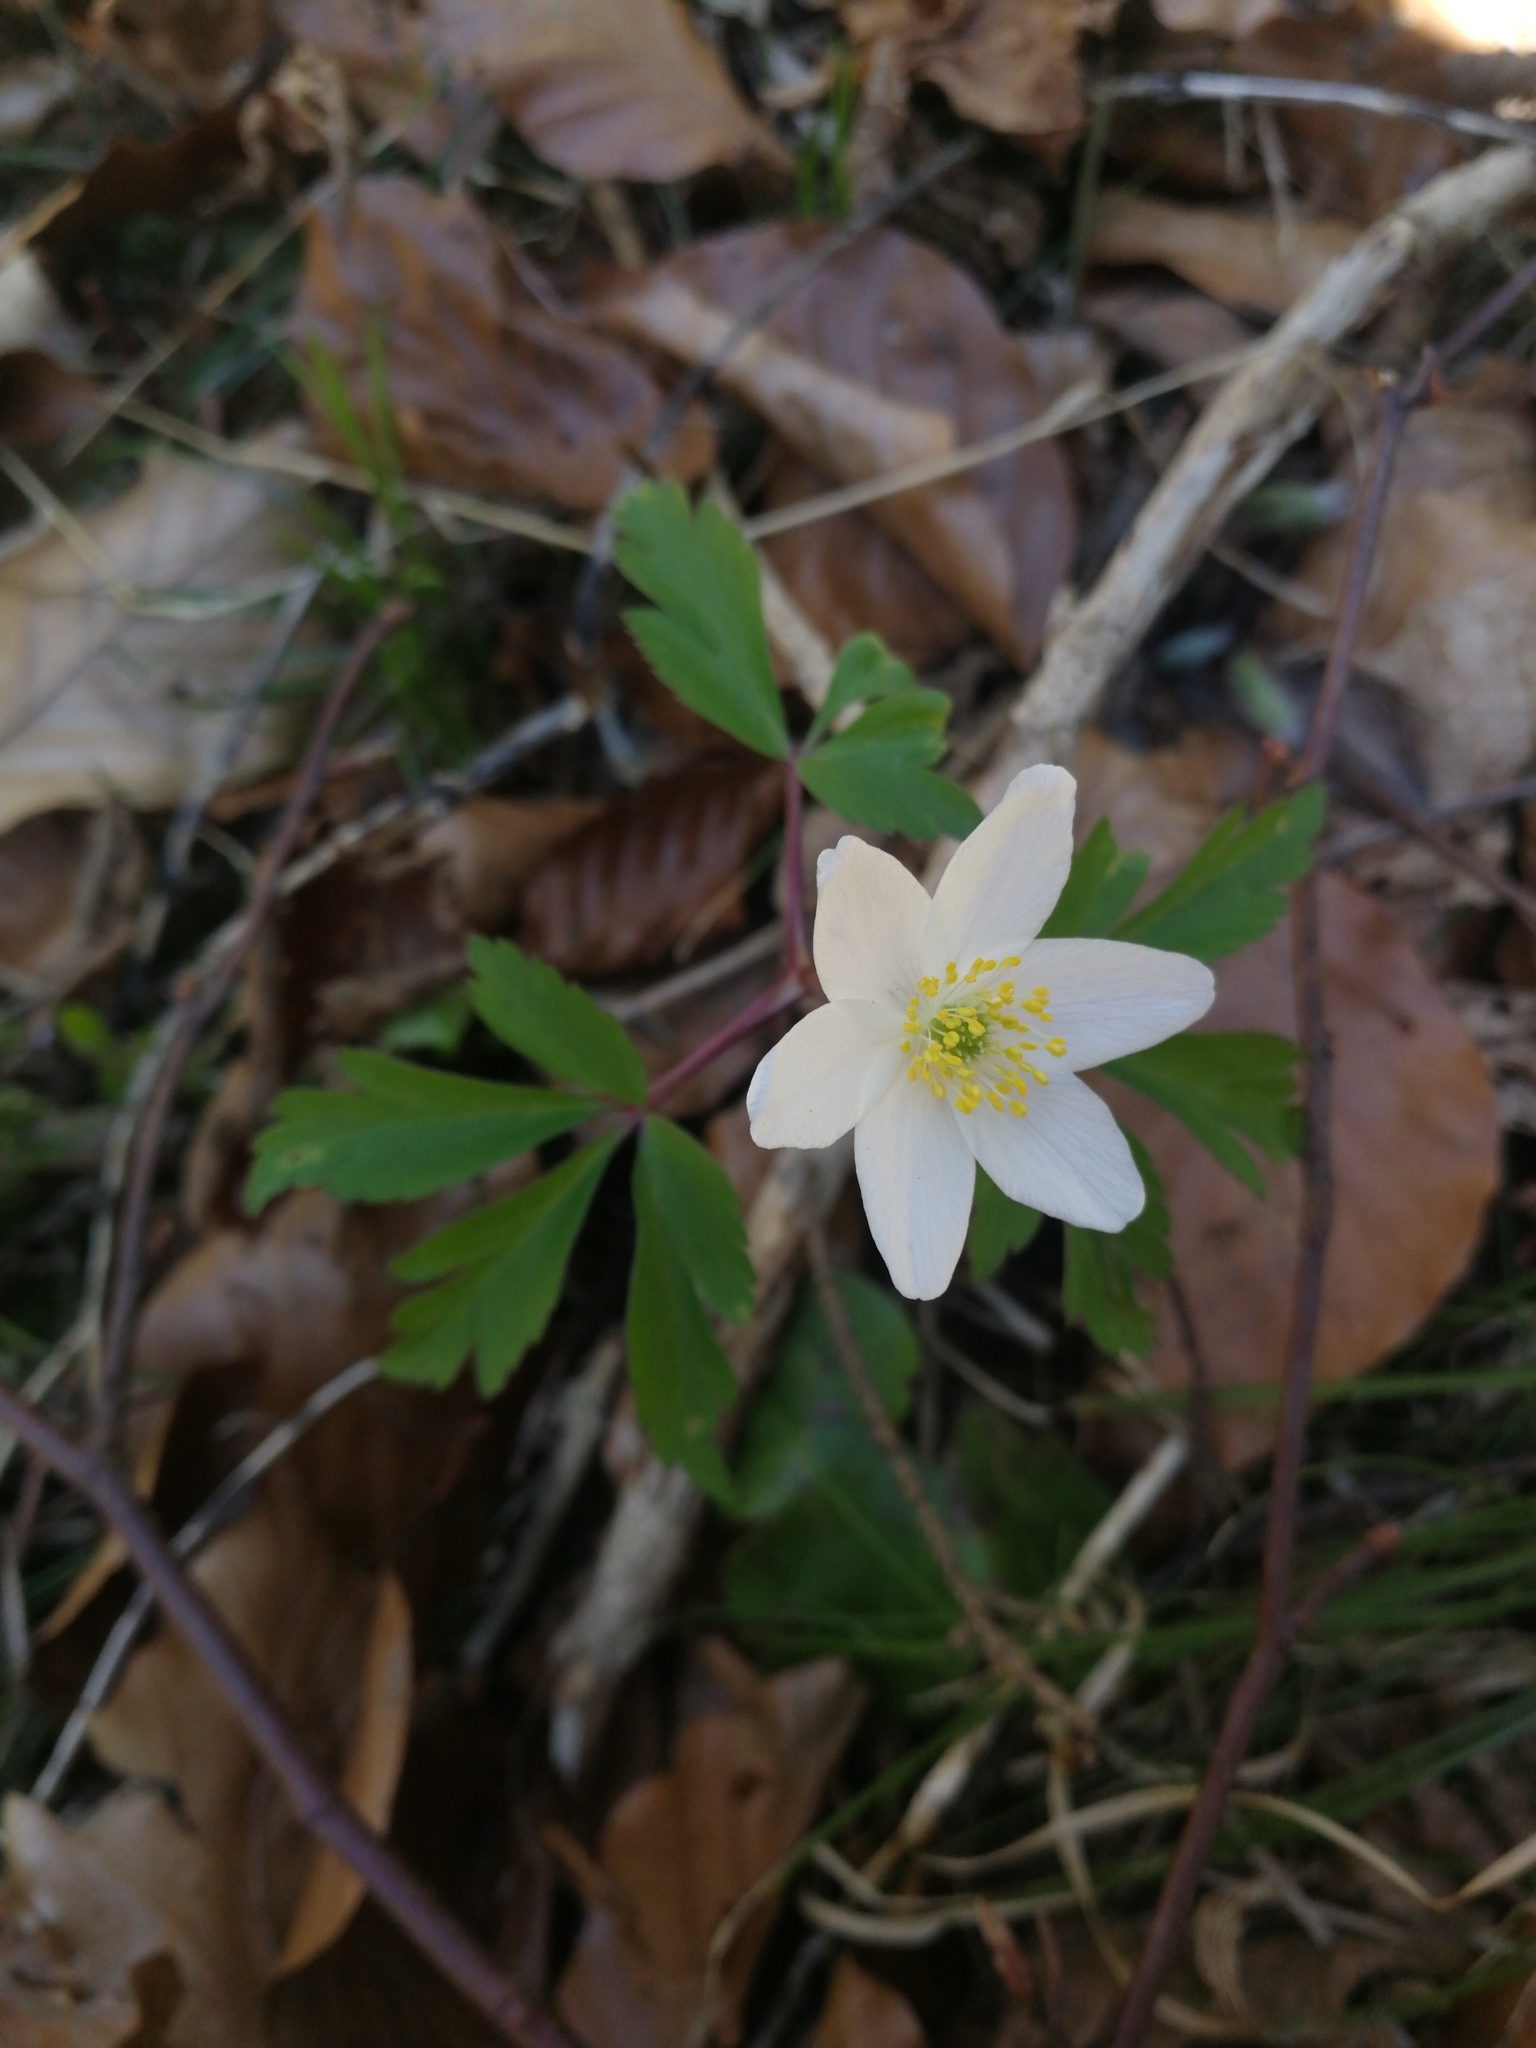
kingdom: Plantae
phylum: Tracheophyta
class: Magnoliopsida
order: Ranunculales
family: Ranunculaceae
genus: Anemone
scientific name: Anemone nemorosa
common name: Wood anemone
